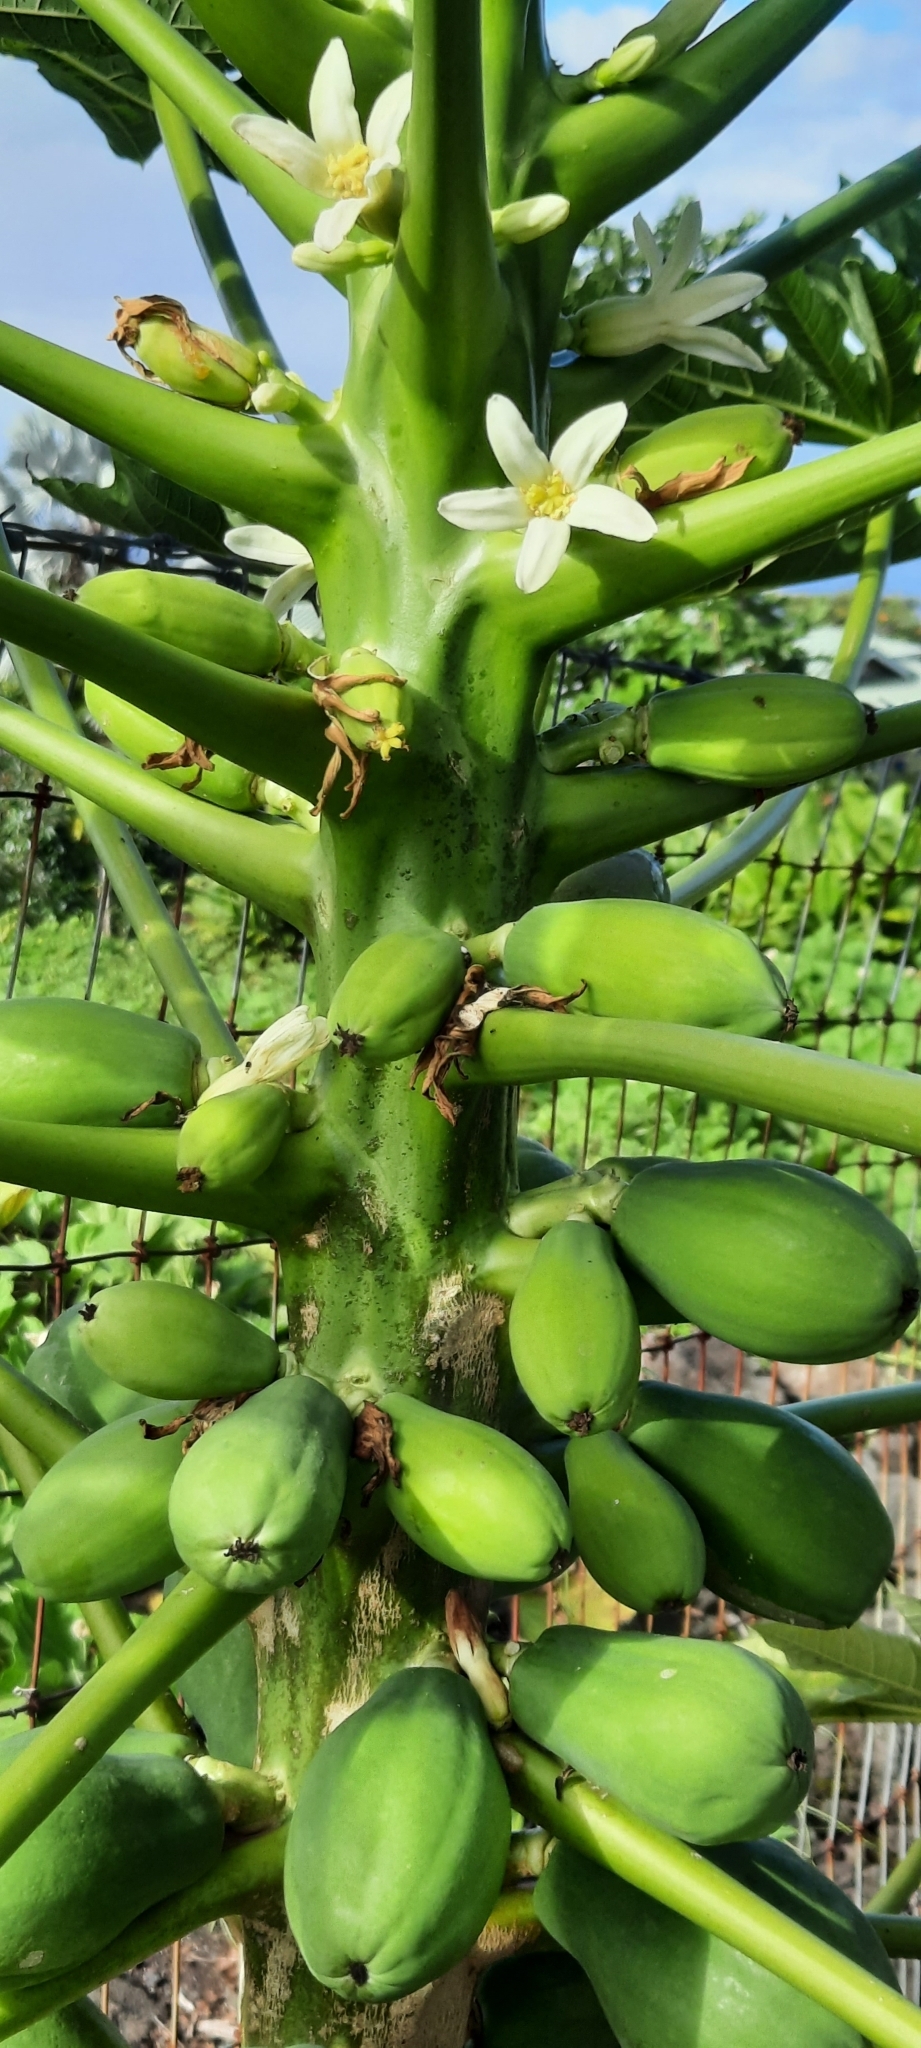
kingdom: Plantae
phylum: Tracheophyta
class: Magnoliopsida
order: Brassicales
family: Caricaceae
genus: Carica
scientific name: Carica papaya
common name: Papaya
